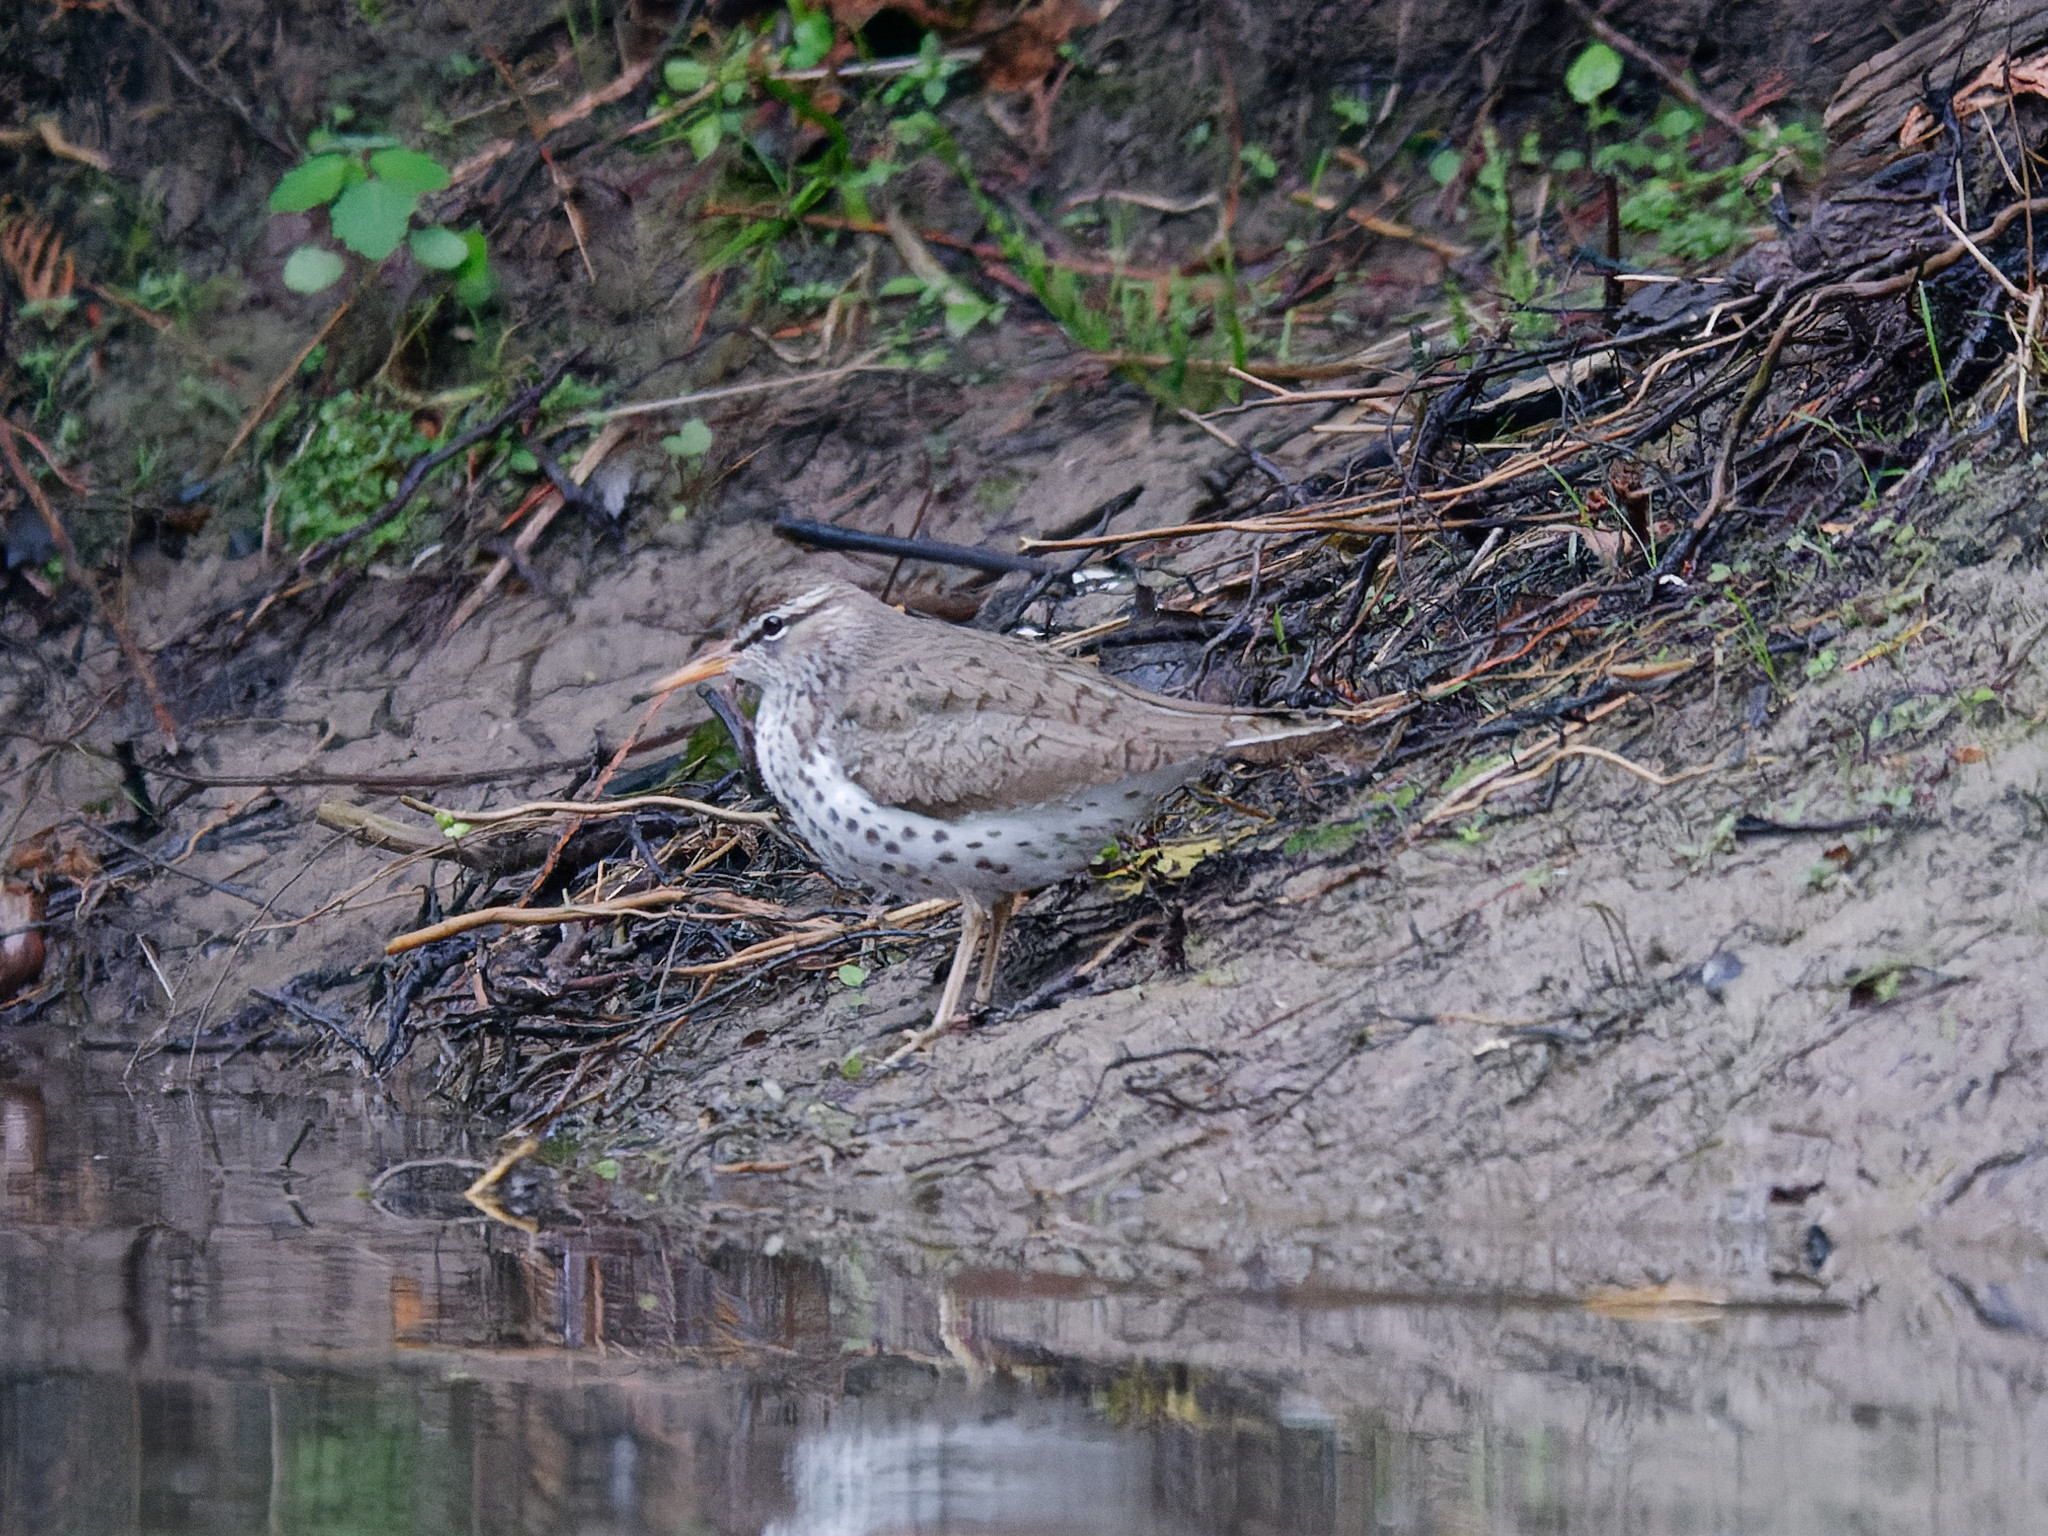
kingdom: Animalia
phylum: Chordata
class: Aves
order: Charadriiformes
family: Scolopacidae
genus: Actitis
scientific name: Actitis macularius
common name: Spotted sandpiper
